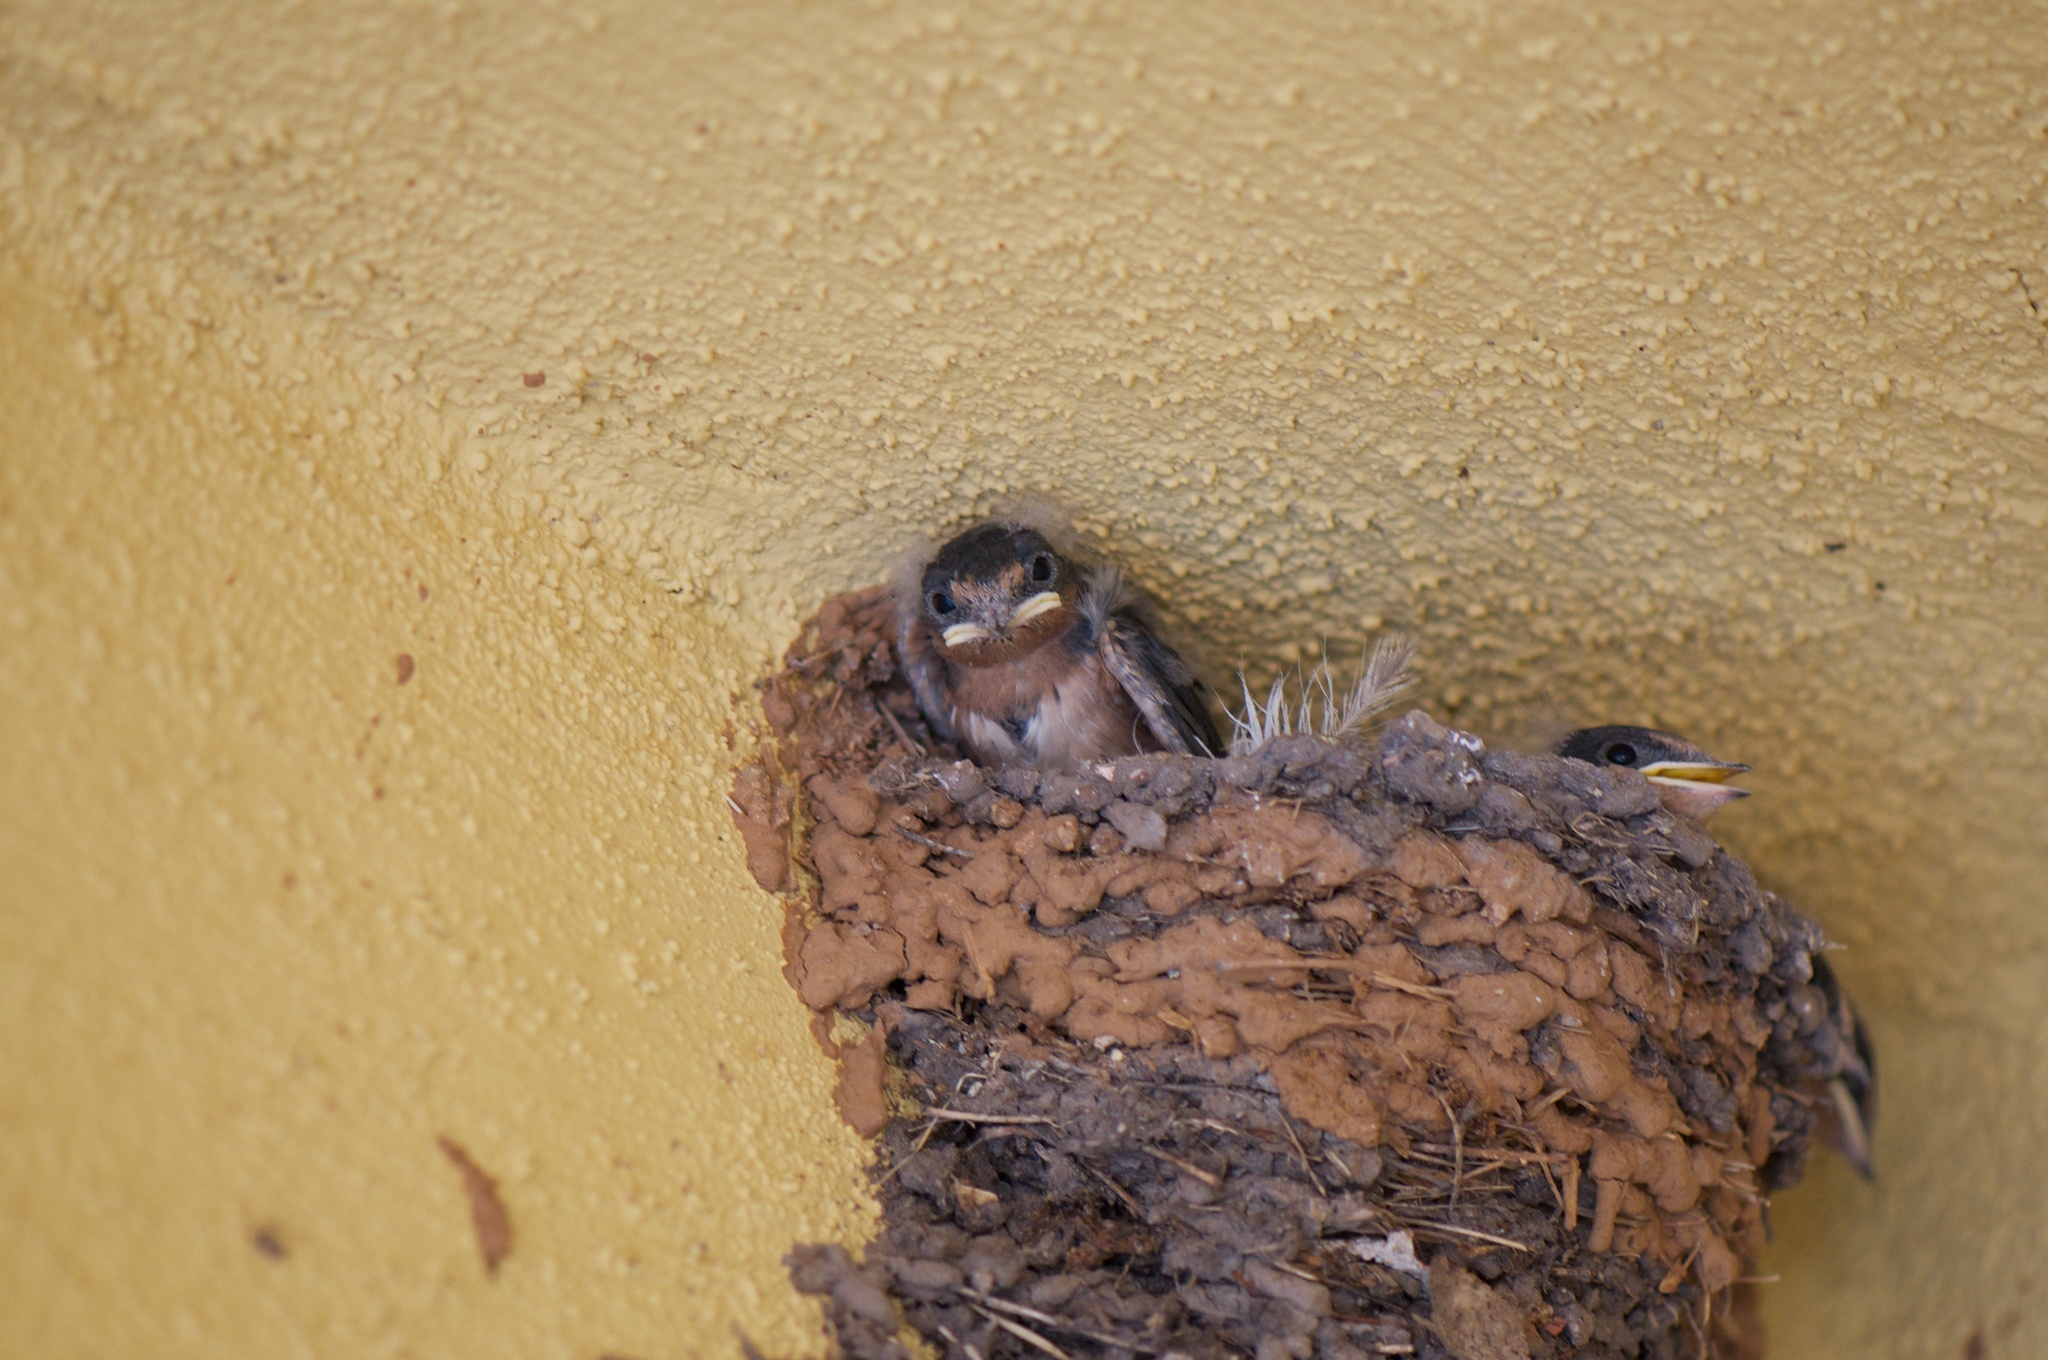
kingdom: Animalia
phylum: Chordata
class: Aves
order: Passeriformes
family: Hirundinidae
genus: Hirundo
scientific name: Hirundo rustica
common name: Barn swallow
